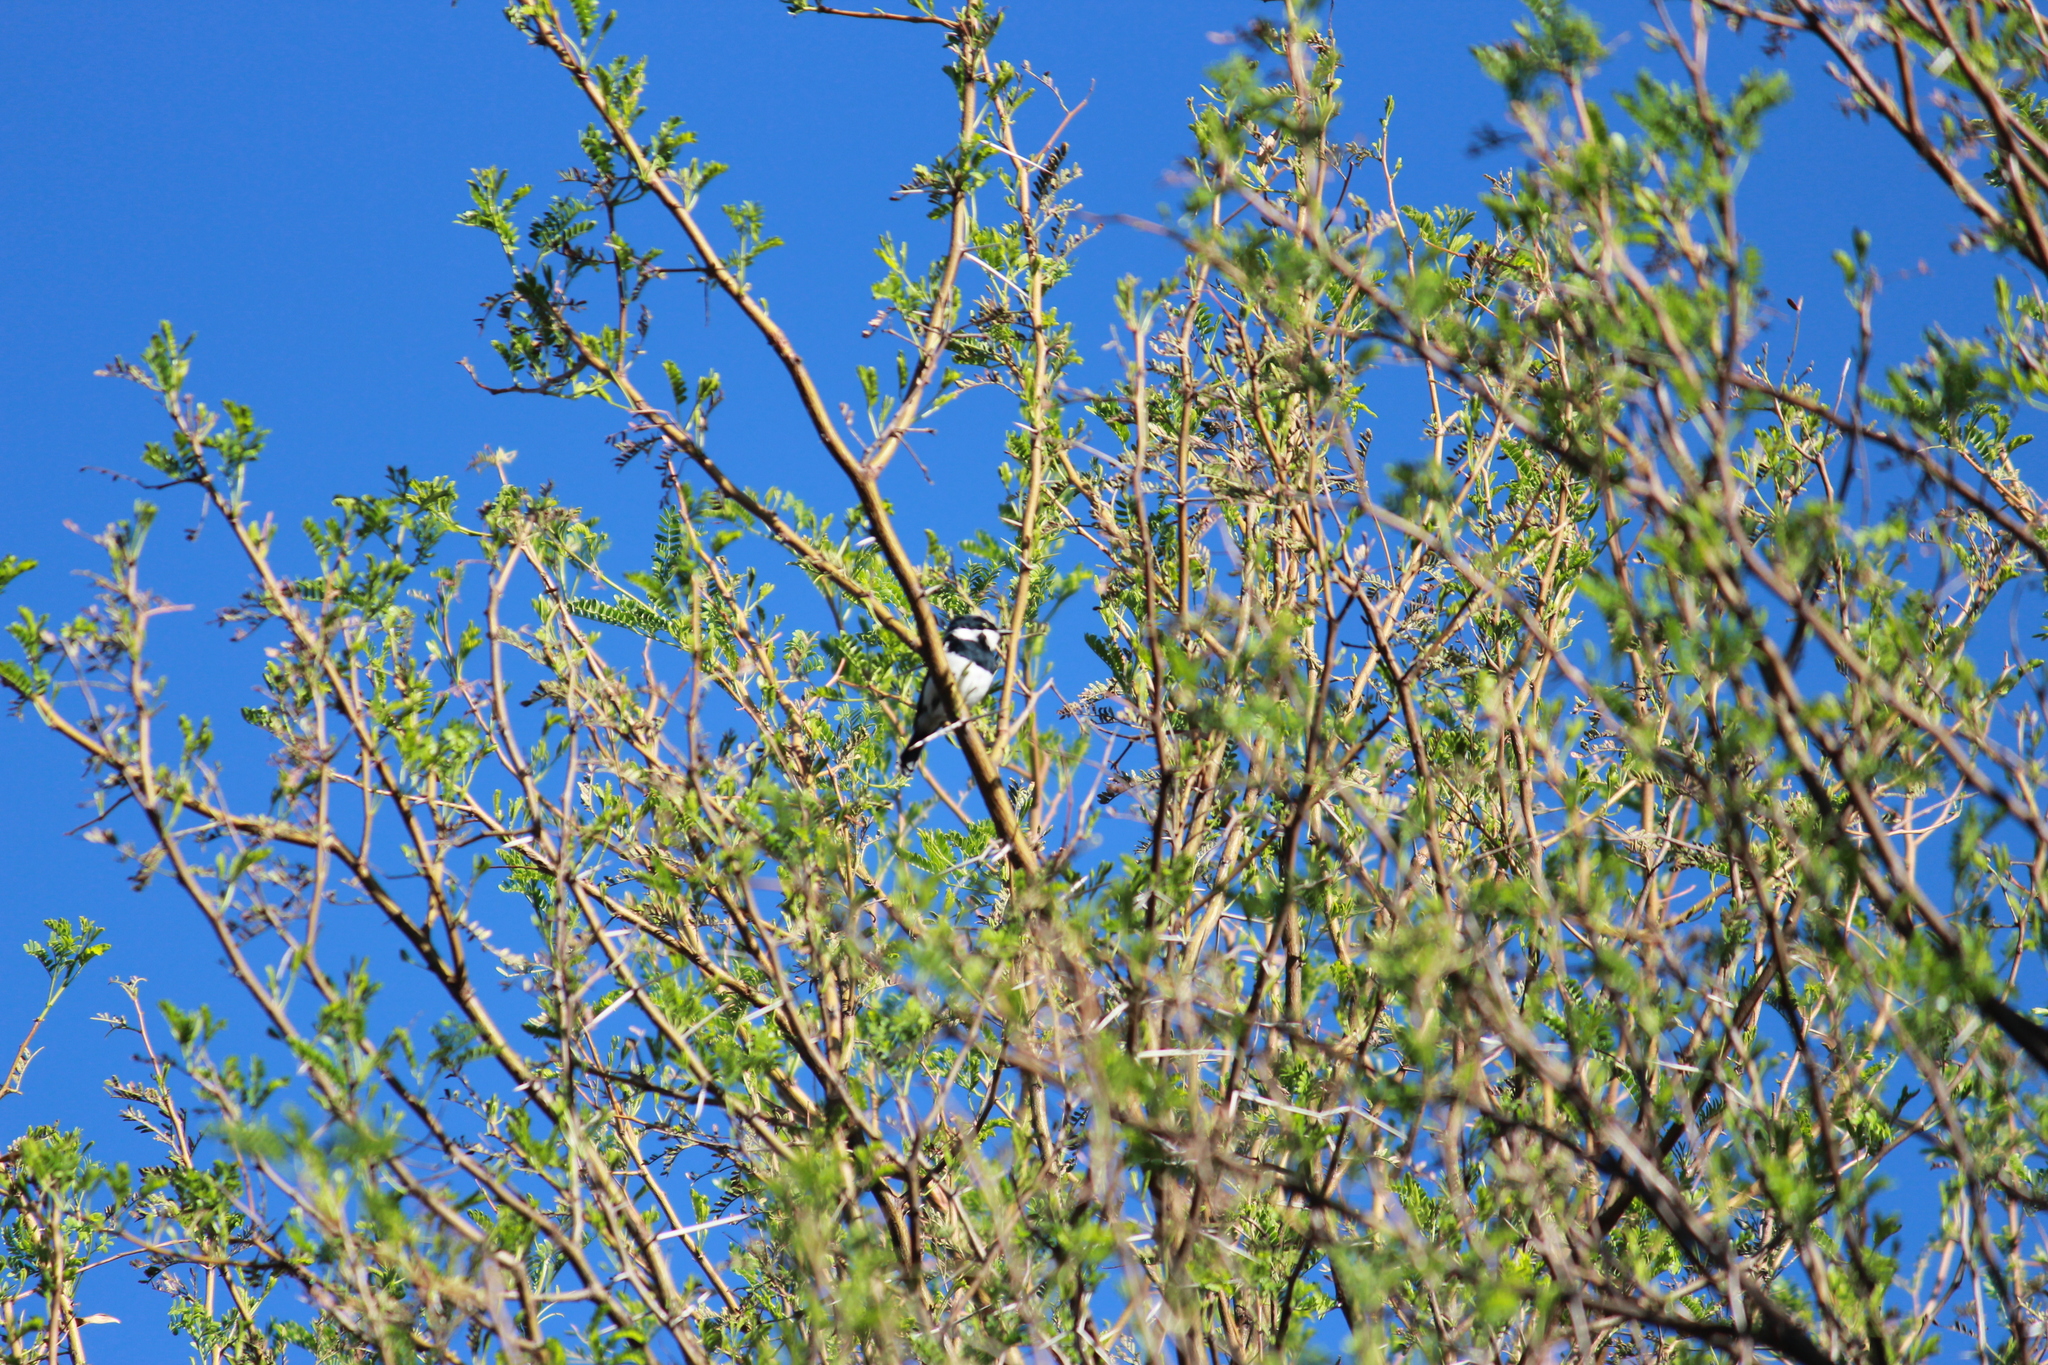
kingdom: Animalia
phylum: Chordata
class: Aves
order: Passeriformes
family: Platysteiridae
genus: Batis
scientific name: Batis pririt
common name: Pririt batis
